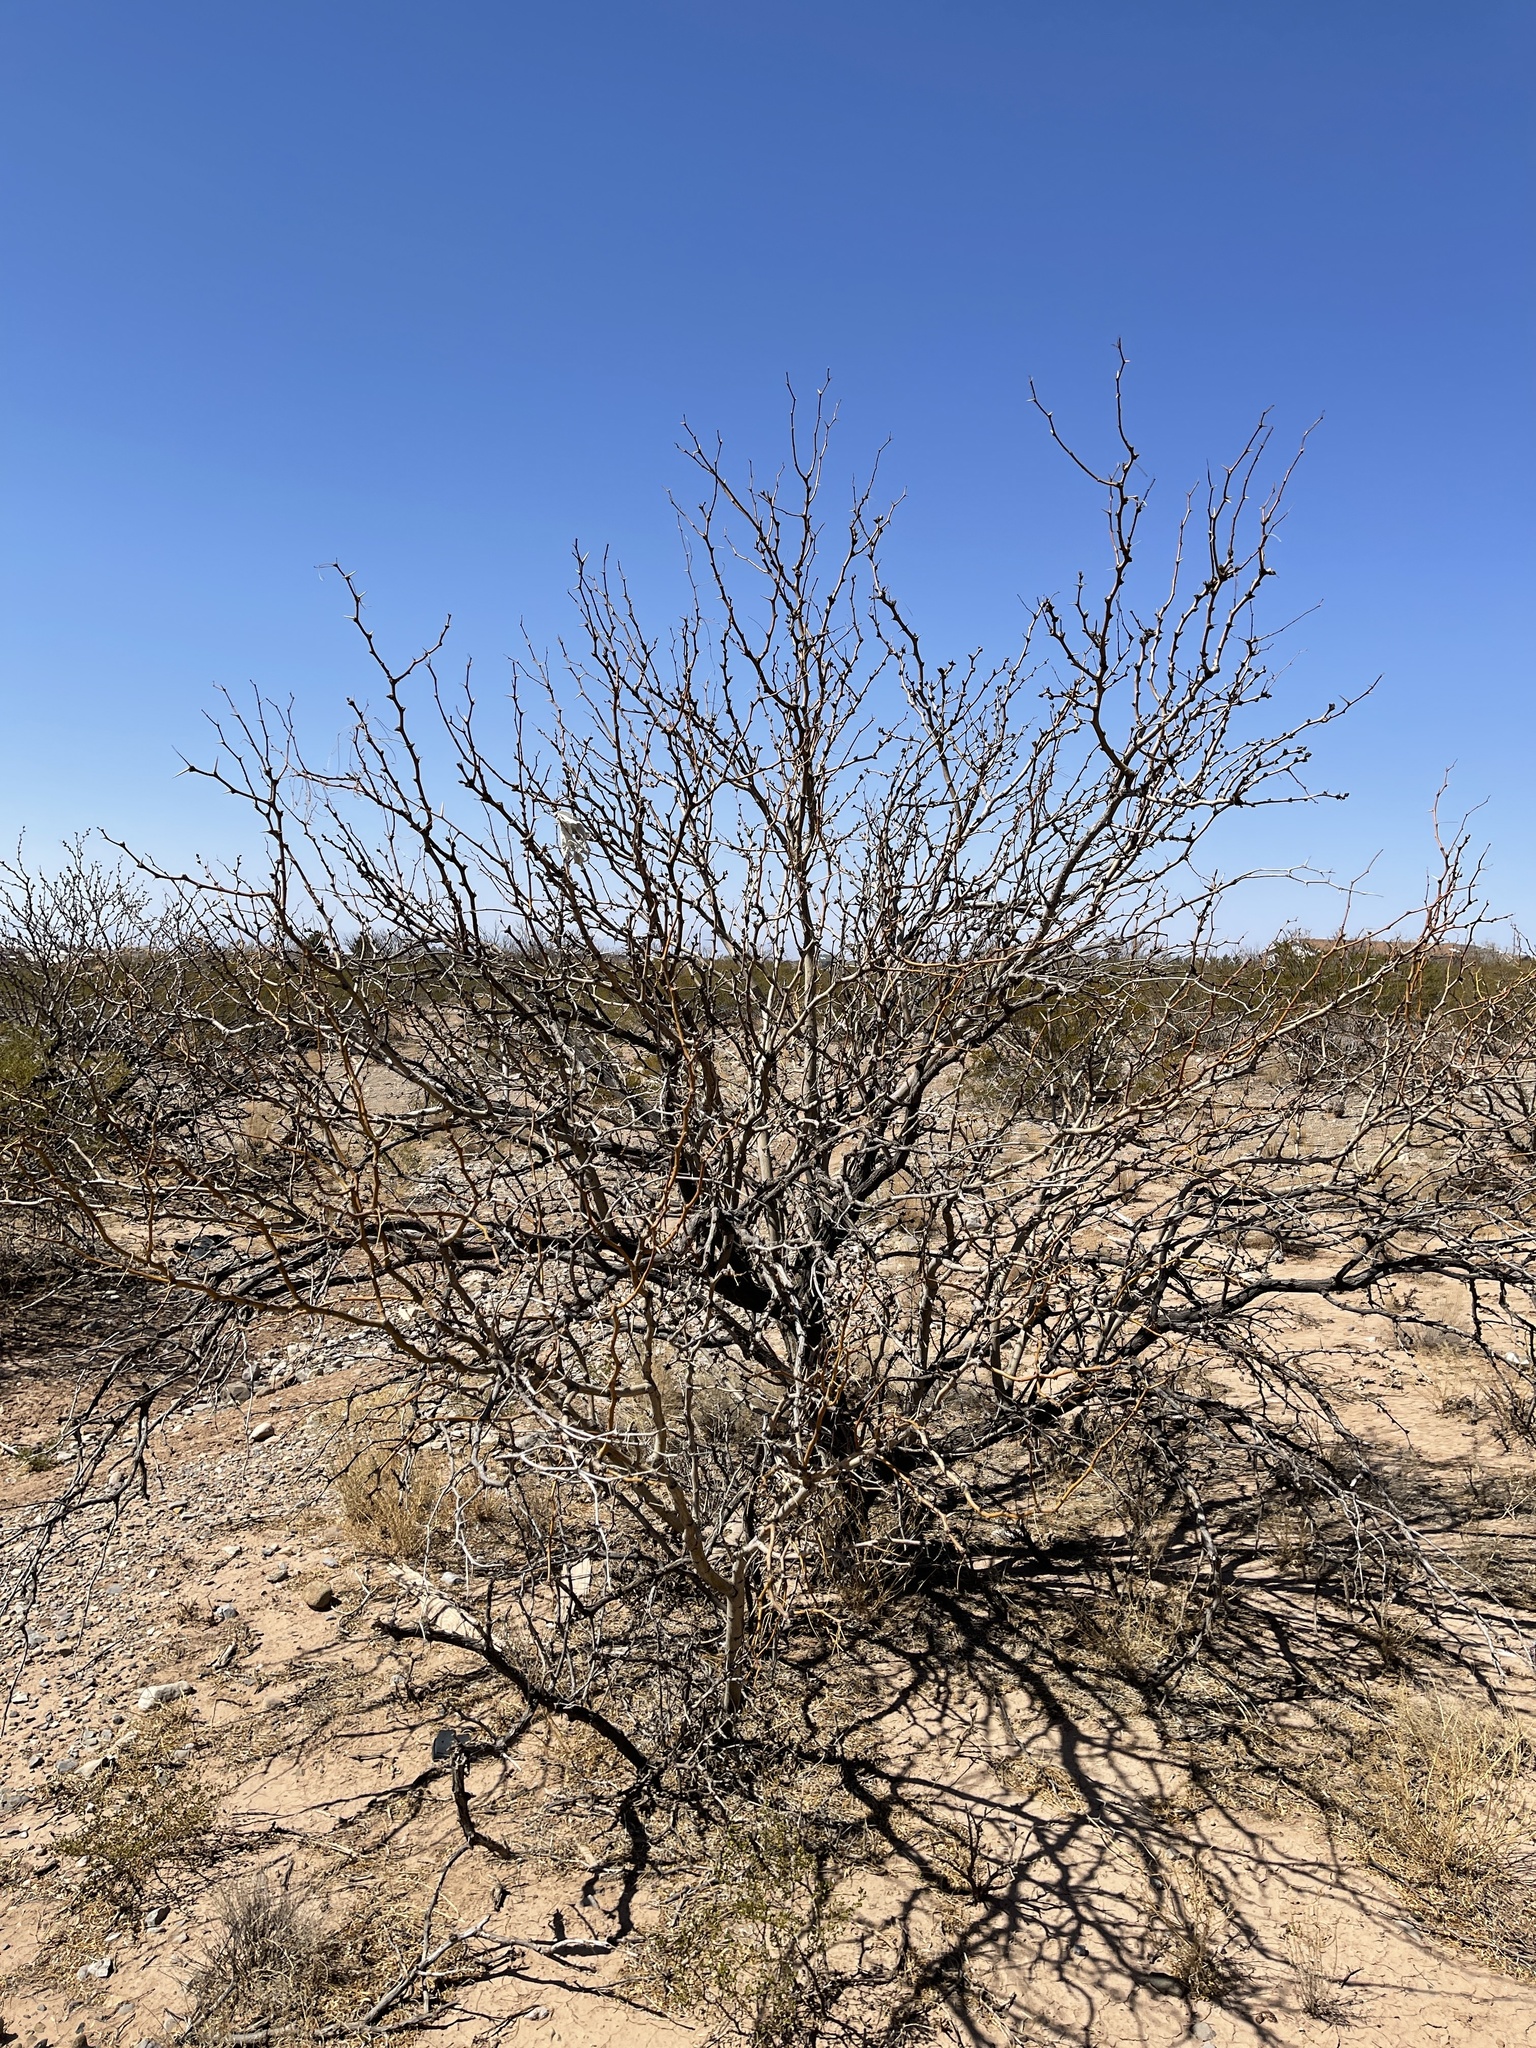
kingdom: Plantae
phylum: Tracheophyta
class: Magnoliopsida
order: Fabales
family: Fabaceae
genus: Prosopis
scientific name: Prosopis glandulosa
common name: Honey mesquite
